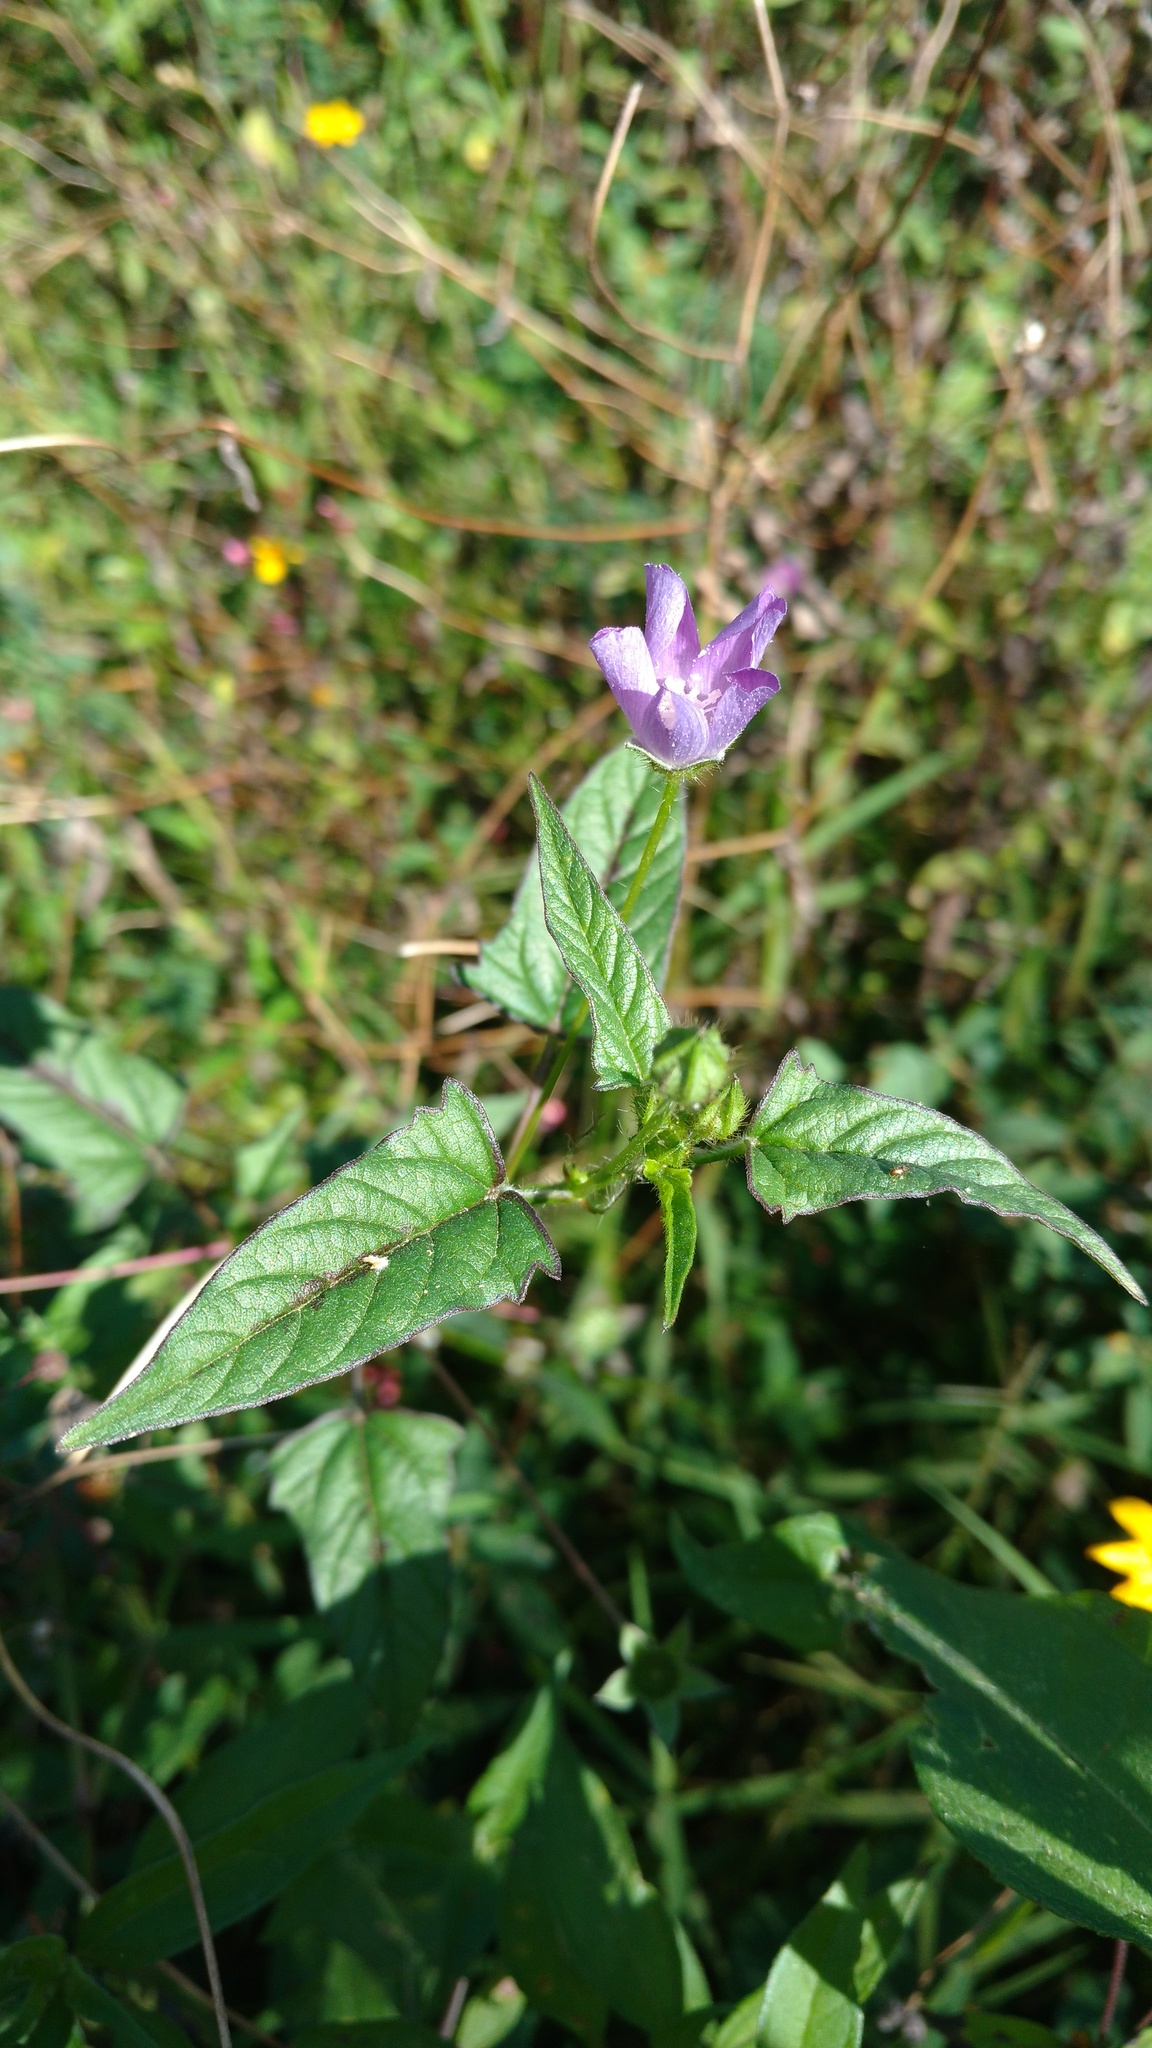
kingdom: Plantae
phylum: Tracheophyta
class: Magnoliopsida
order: Malvales
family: Malvaceae
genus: Anoda
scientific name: Anoda cristata
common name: Spurred anoda
